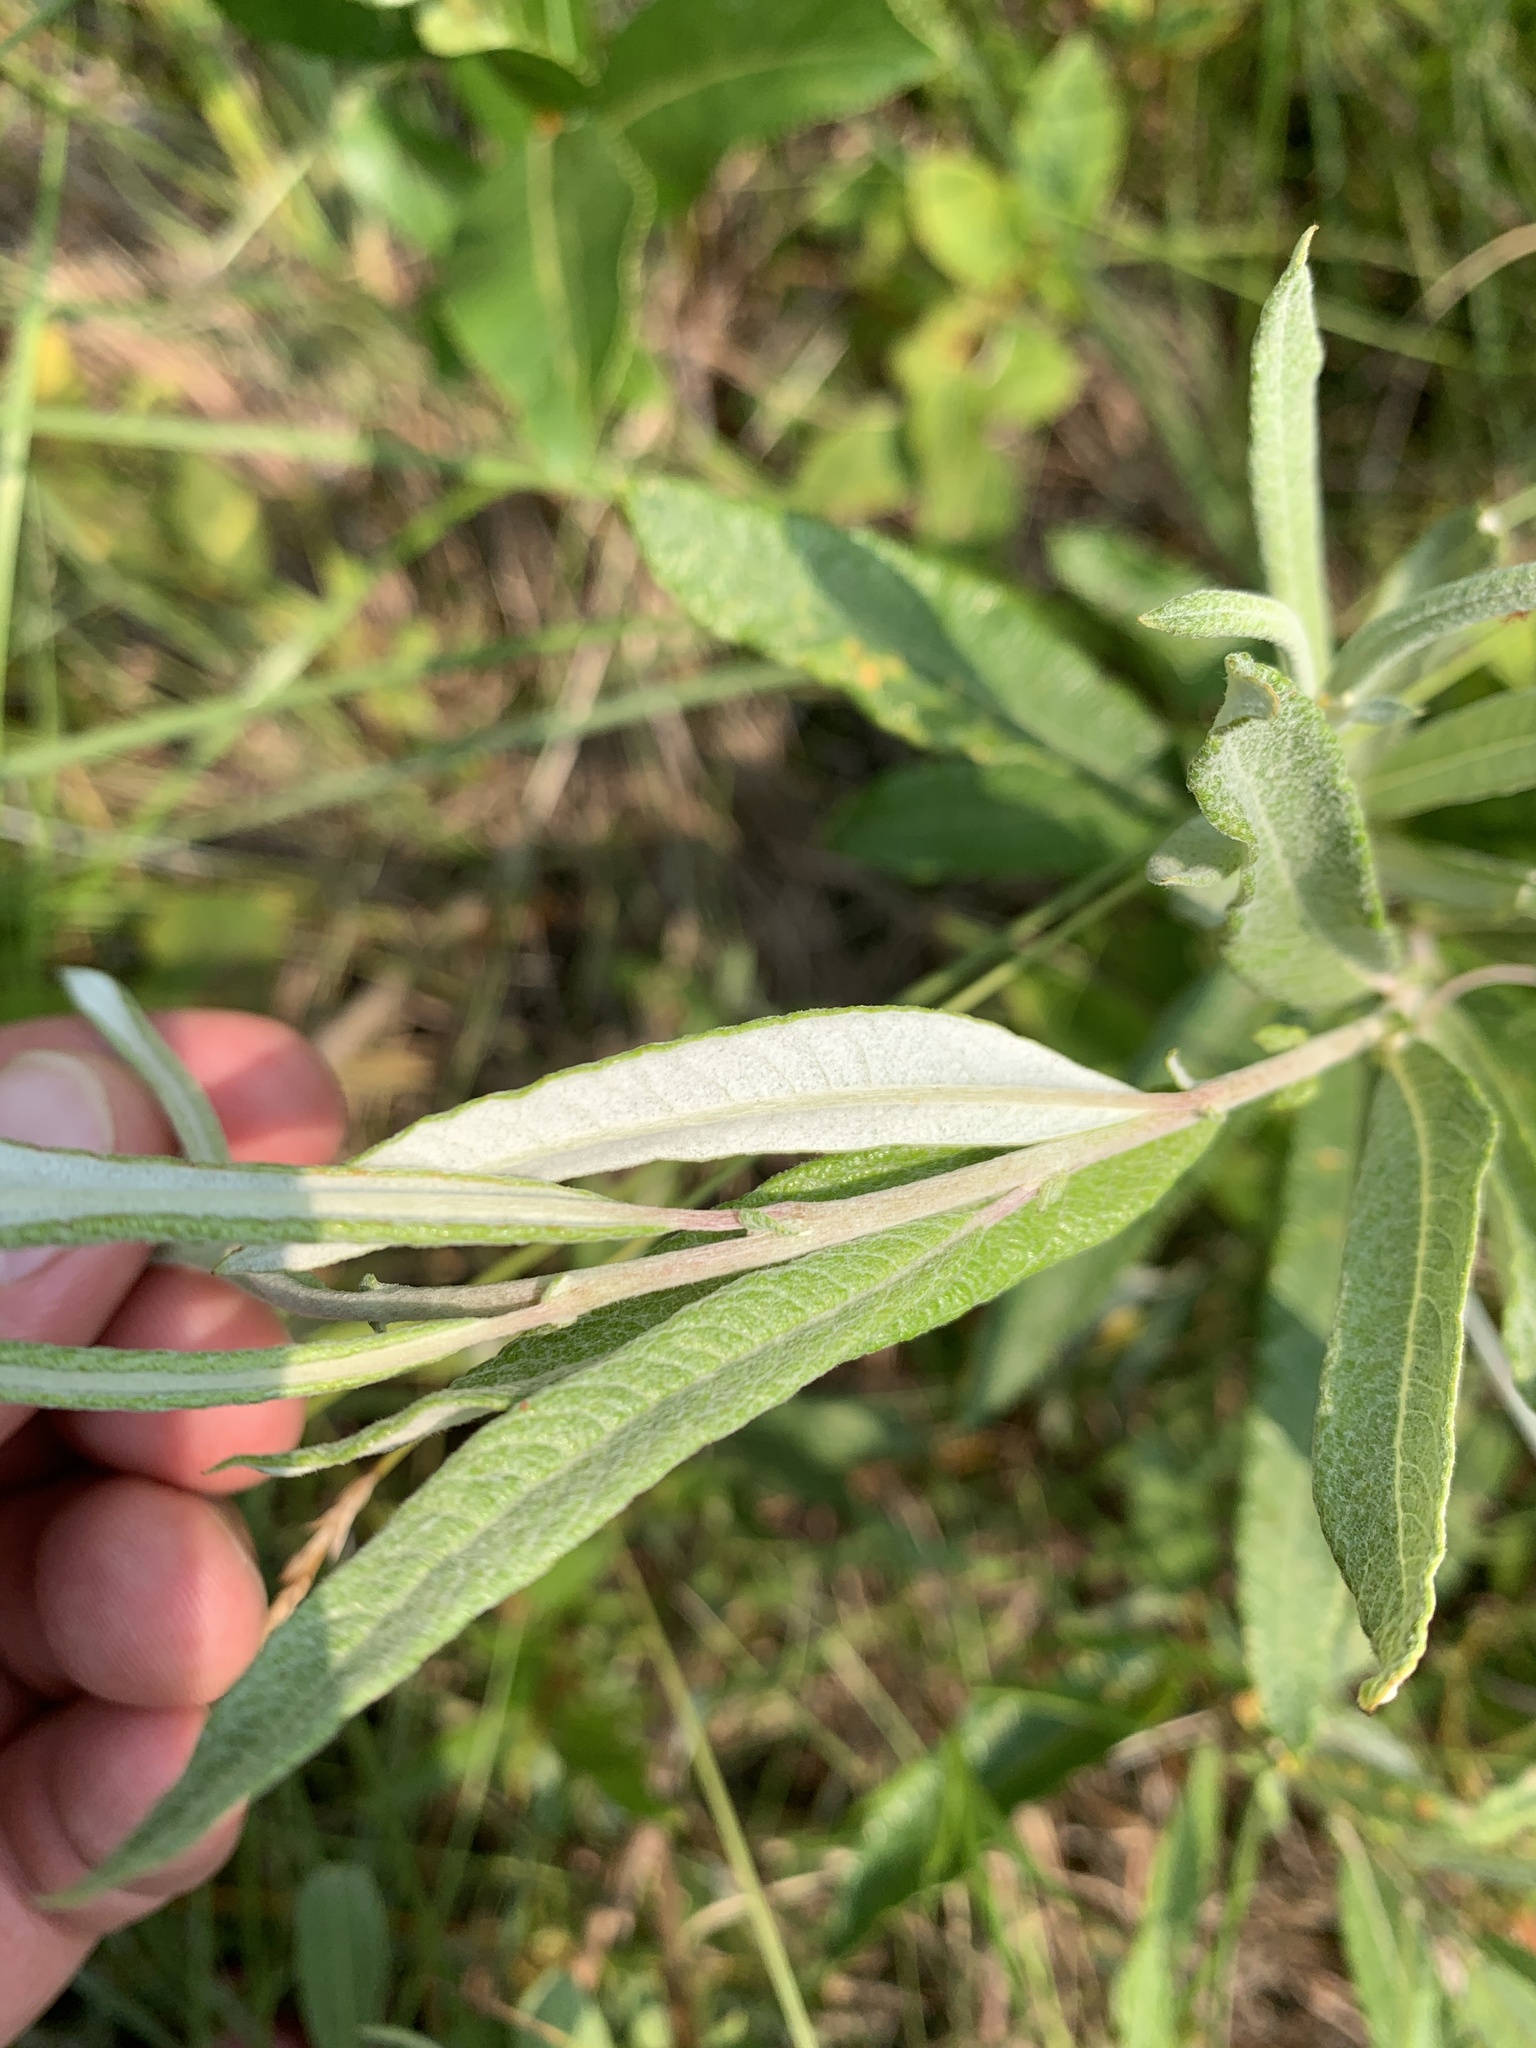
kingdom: Plantae
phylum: Tracheophyta
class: Magnoliopsida
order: Malpighiales
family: Salicaceae
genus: Salix
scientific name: Salix candida
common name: Hoary willow
